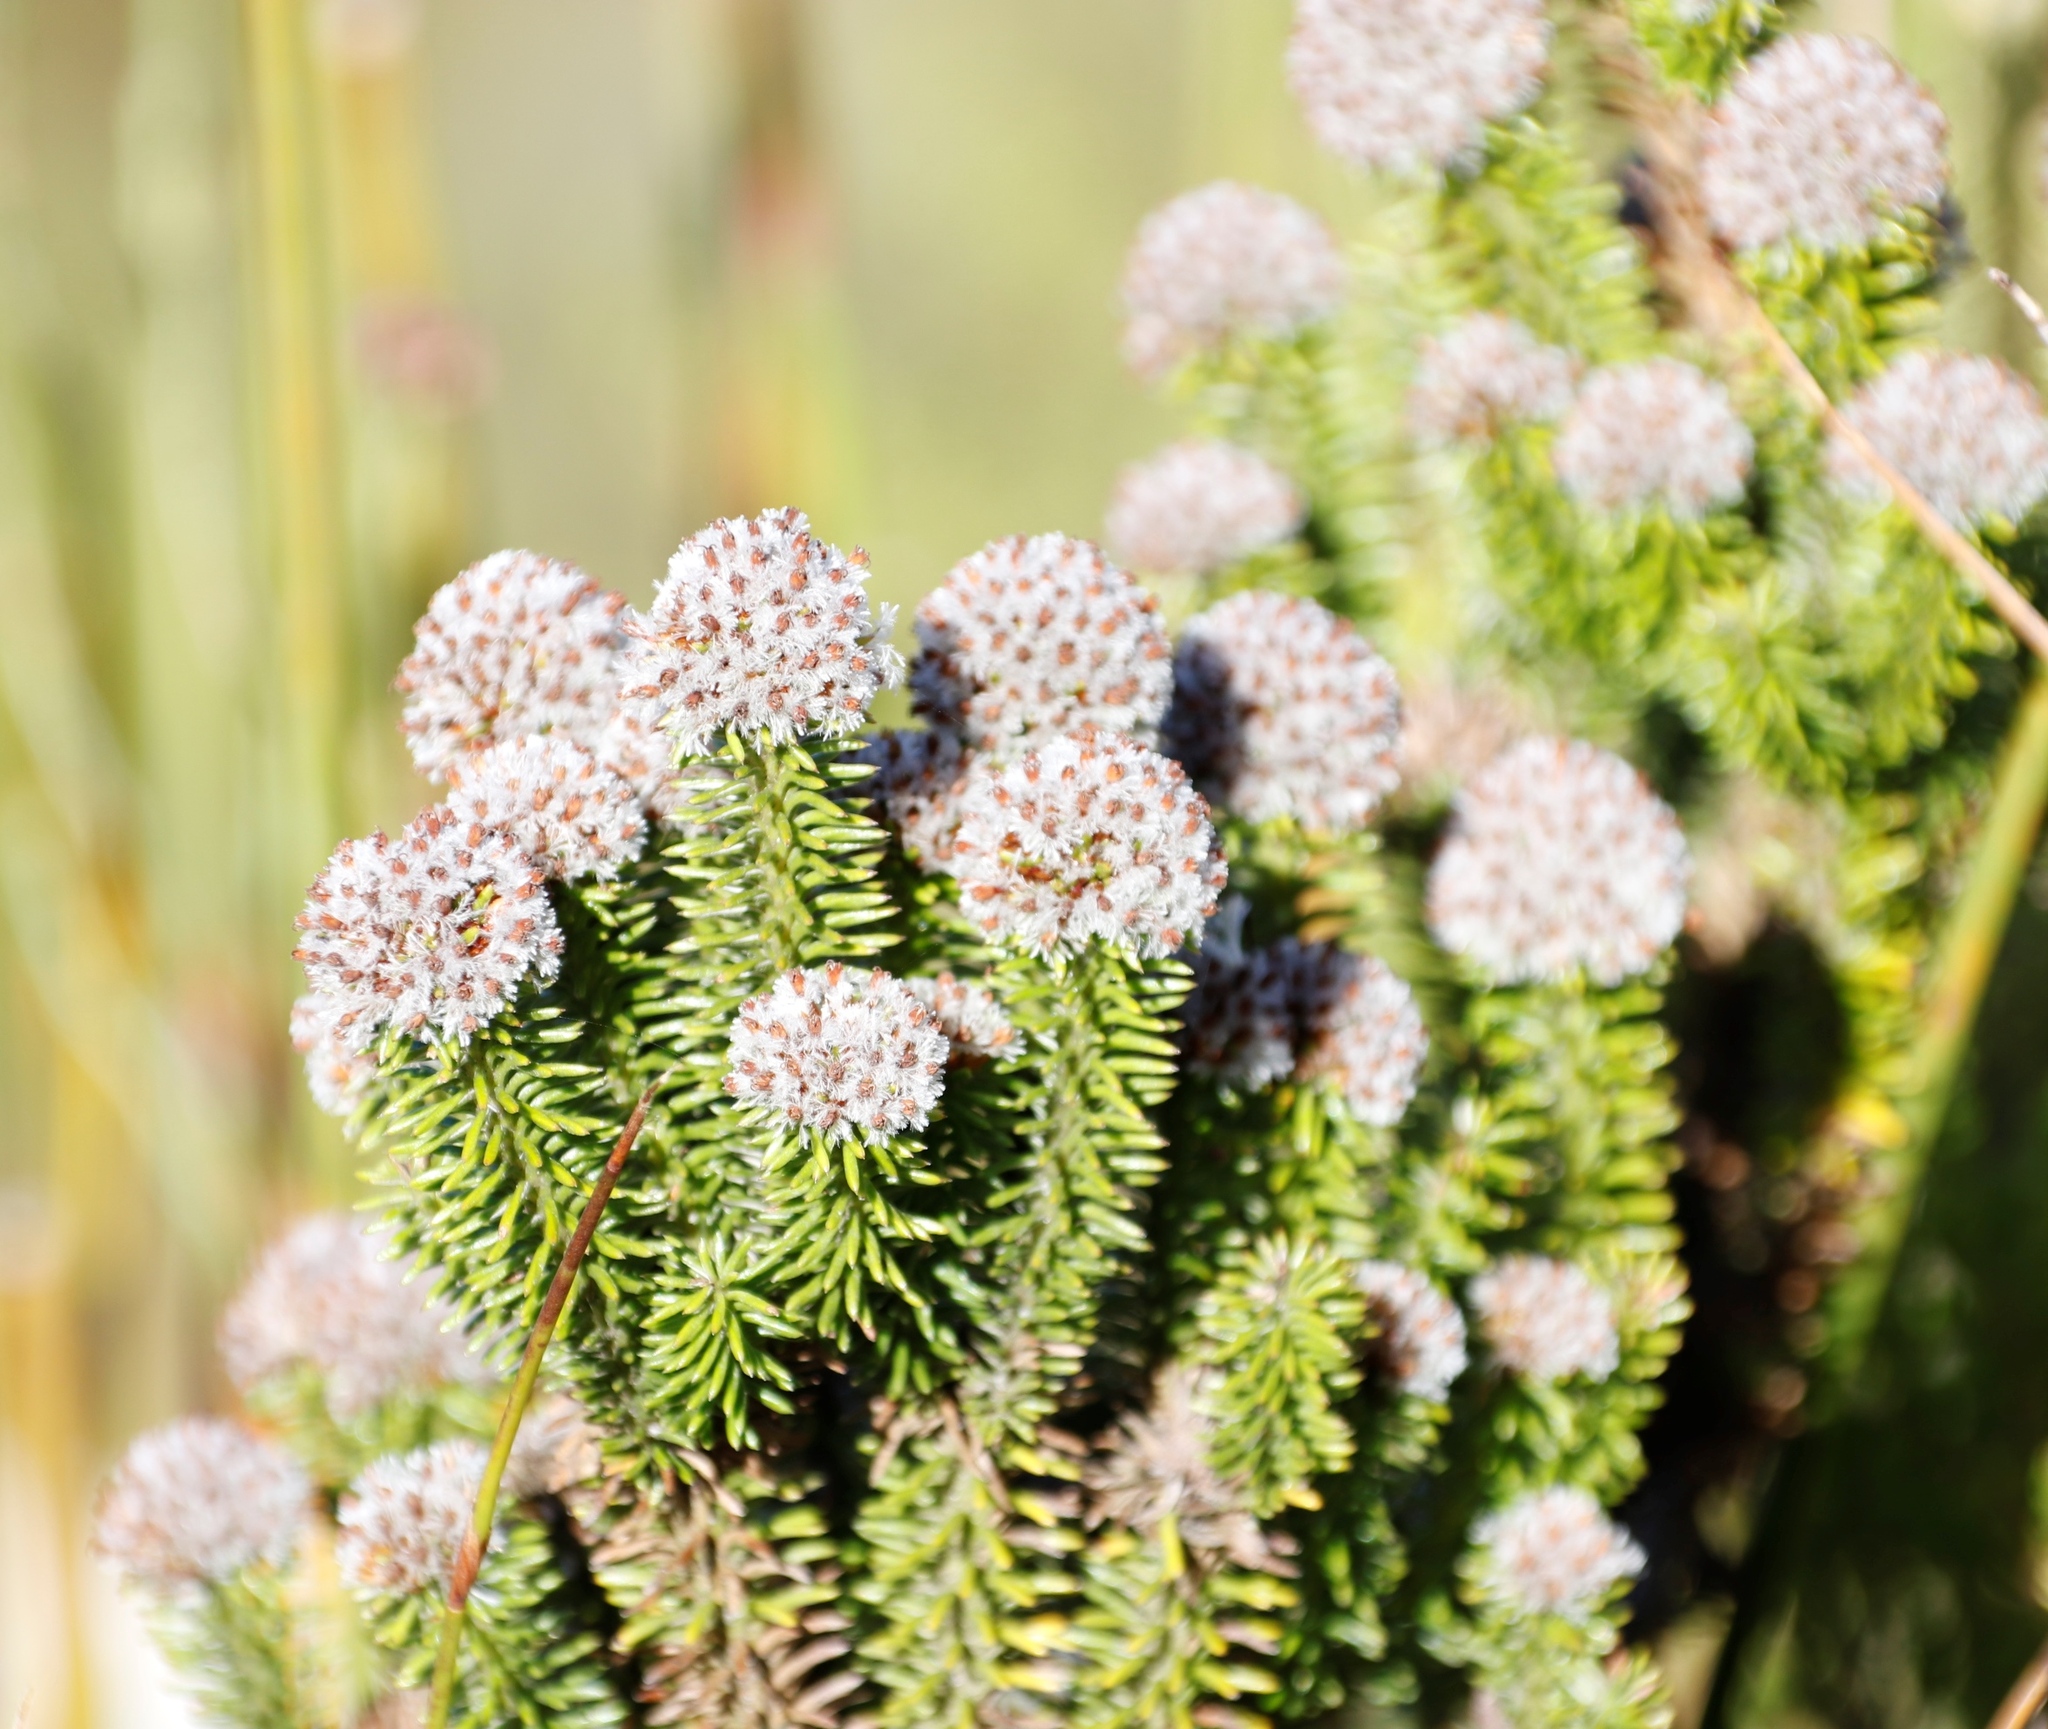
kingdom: Plantae
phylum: Tracheophyta
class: Magnoliopsida
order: Asterales
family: Asteraceae
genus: Stoebe
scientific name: Stoebe rosea
